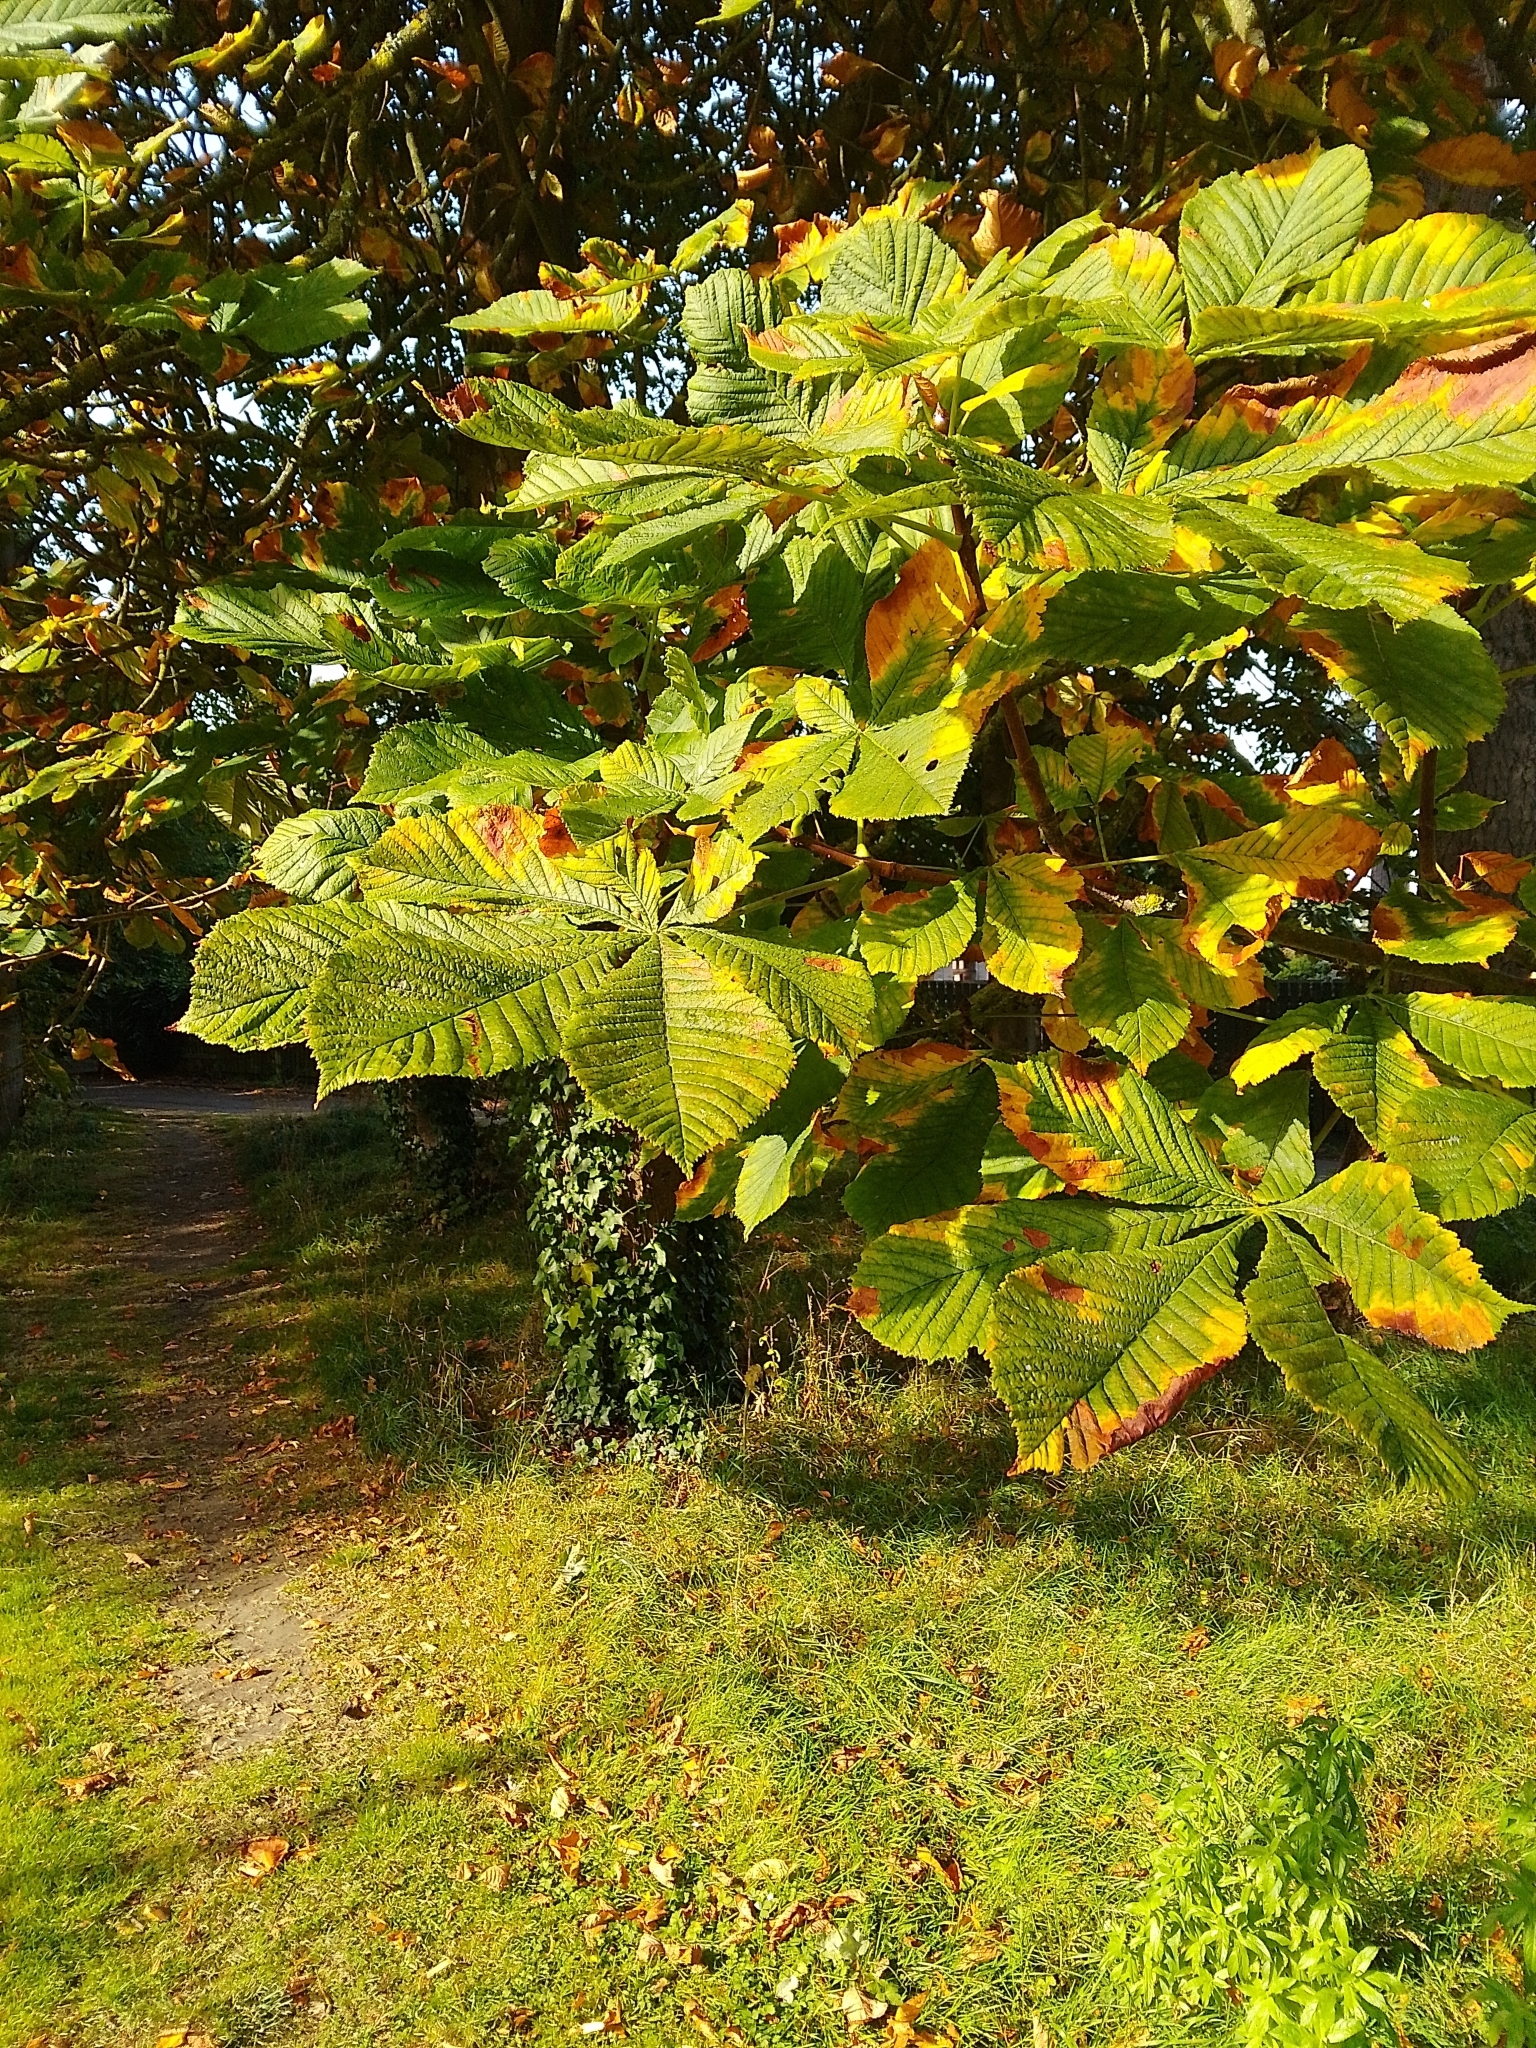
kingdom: Plantae
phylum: Tracheophyta
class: Magnoliopsida
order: Sapindales
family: Sapindaceae
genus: Aesculus
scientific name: Aesculus hippocastanum
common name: Horse-chestnut
